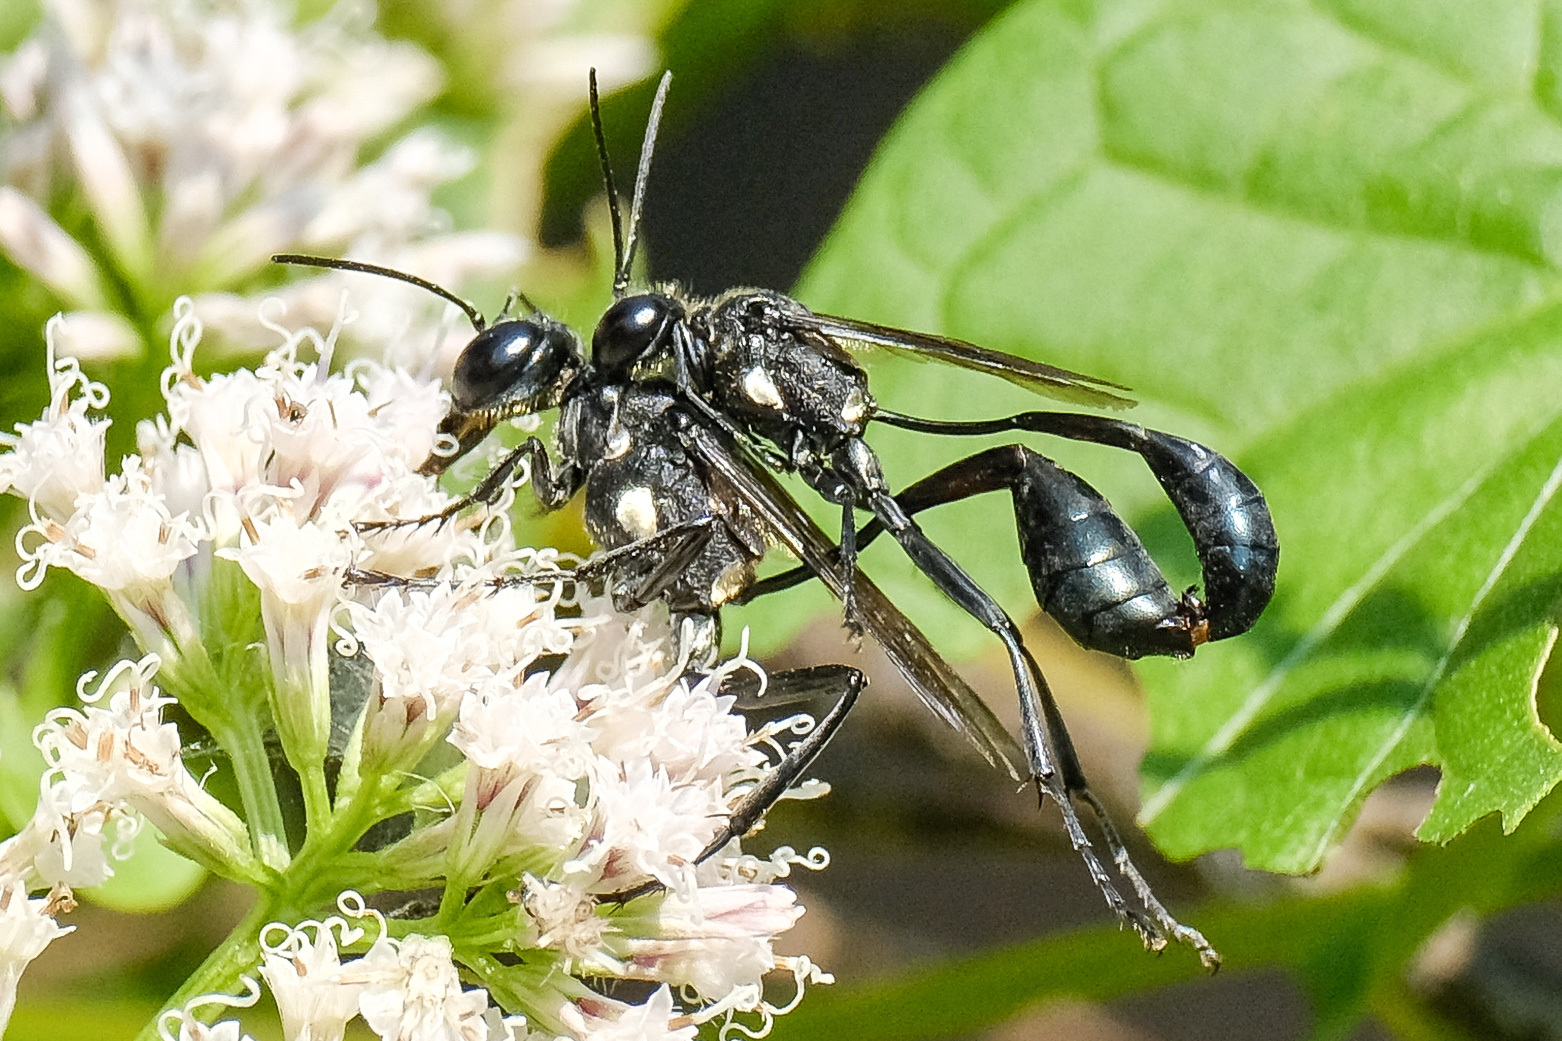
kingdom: Animalia
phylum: Arthropoda
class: Insecta
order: Hymenoptera
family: Sphecidae
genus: Eremnophila
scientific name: Eremnophila aureonotata
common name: Gold-marked thread-waisted wasp
